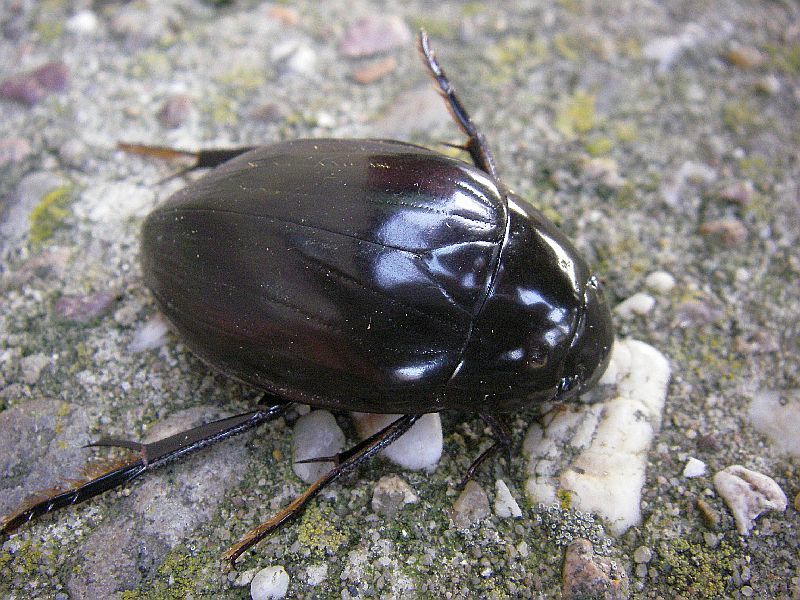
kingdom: Animalia
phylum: Arthropoda
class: Insecta
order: Coleoptera
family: Hydrophilidae
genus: Hydrophilus
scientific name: Hydrophilus piceus
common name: Great silver water beetle
